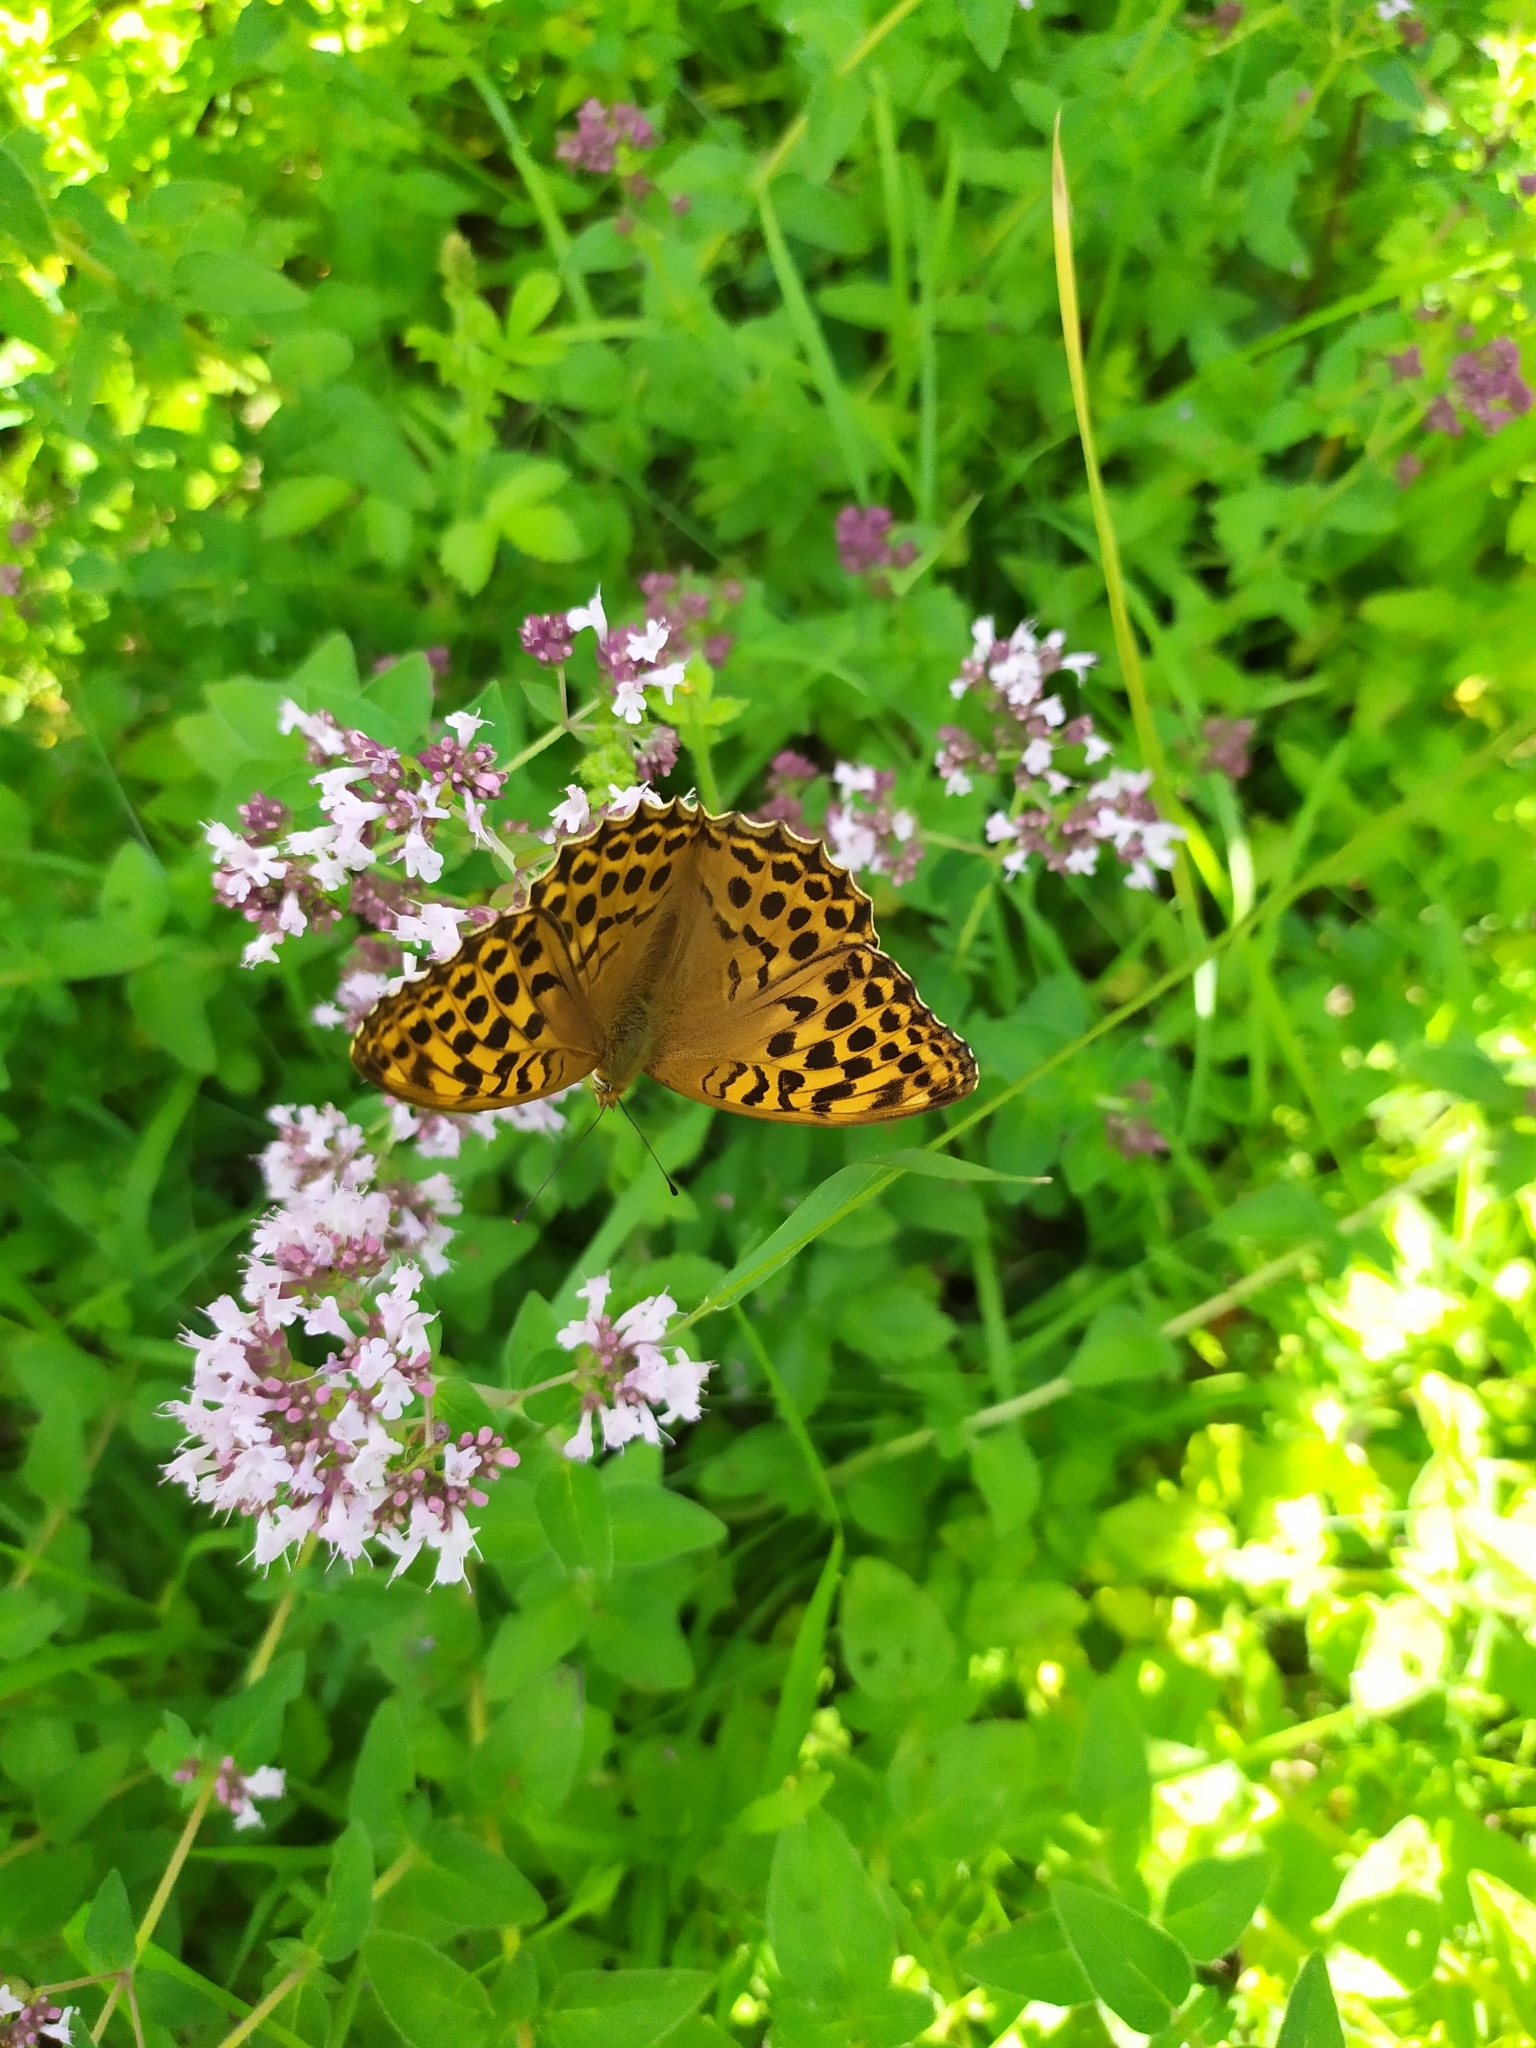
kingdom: Animalia
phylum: Arthropoda
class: Insecta
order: Lepidoptera
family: Nymphalidae
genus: Argynnis
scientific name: Argynnis paphia
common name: Silver-washed fritillary
